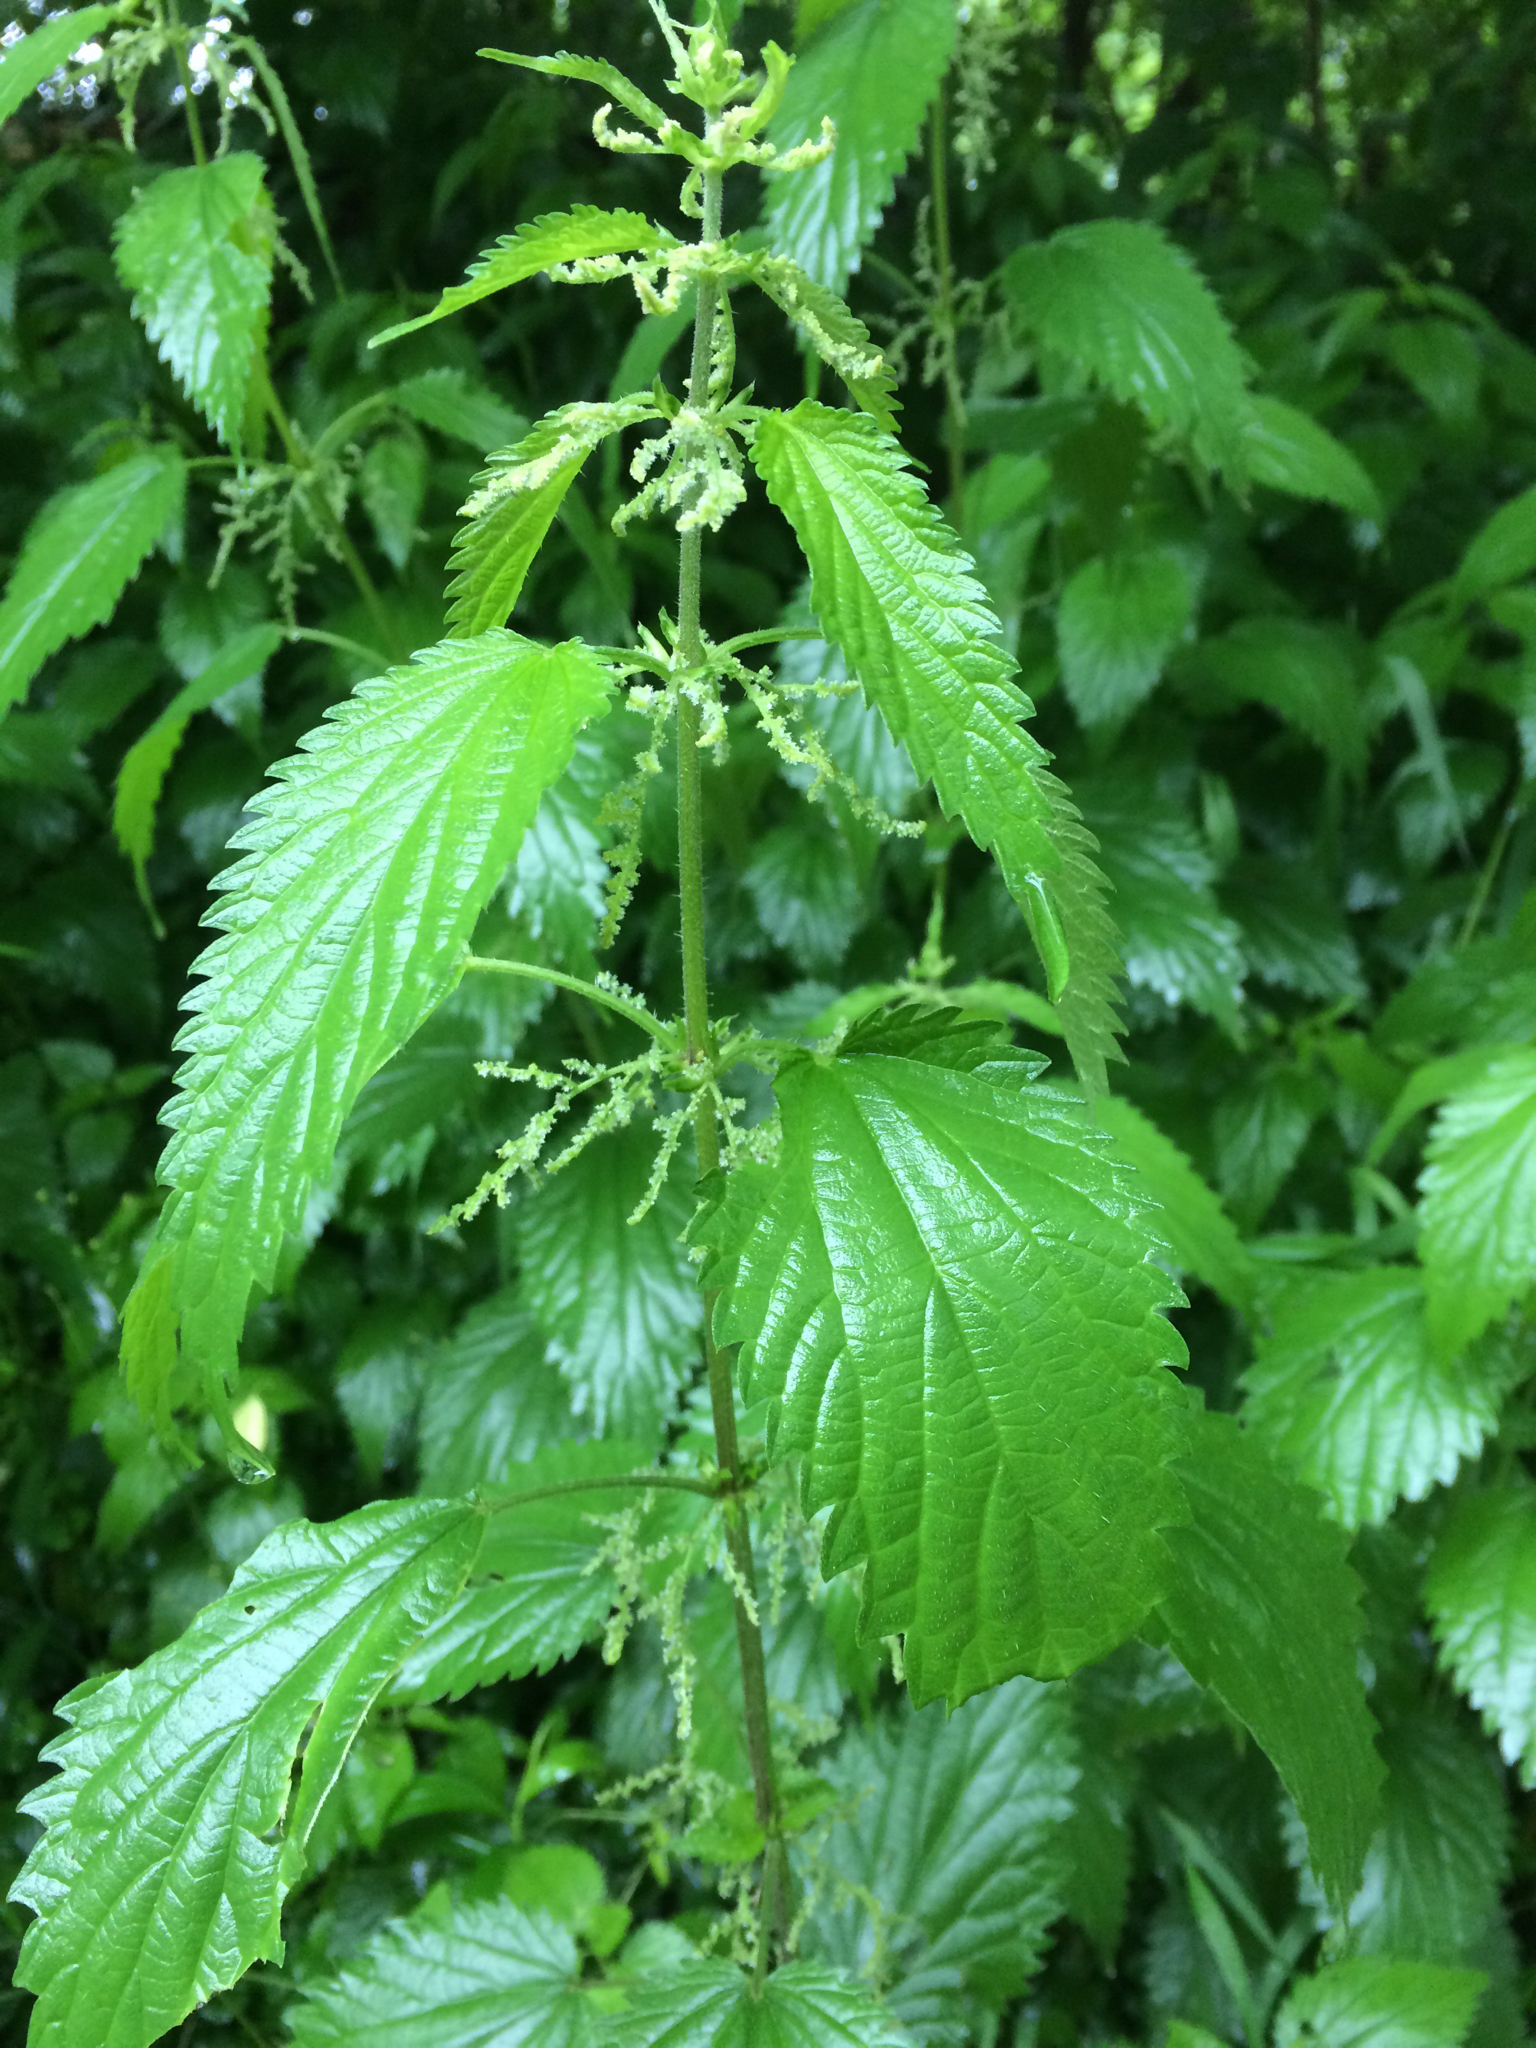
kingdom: Plantae
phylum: Tracheophyta
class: Magnoliopsida
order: Rosales
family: Urticaceae
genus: Urtica
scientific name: Urtica gracilis
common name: Slender stinging nettle
